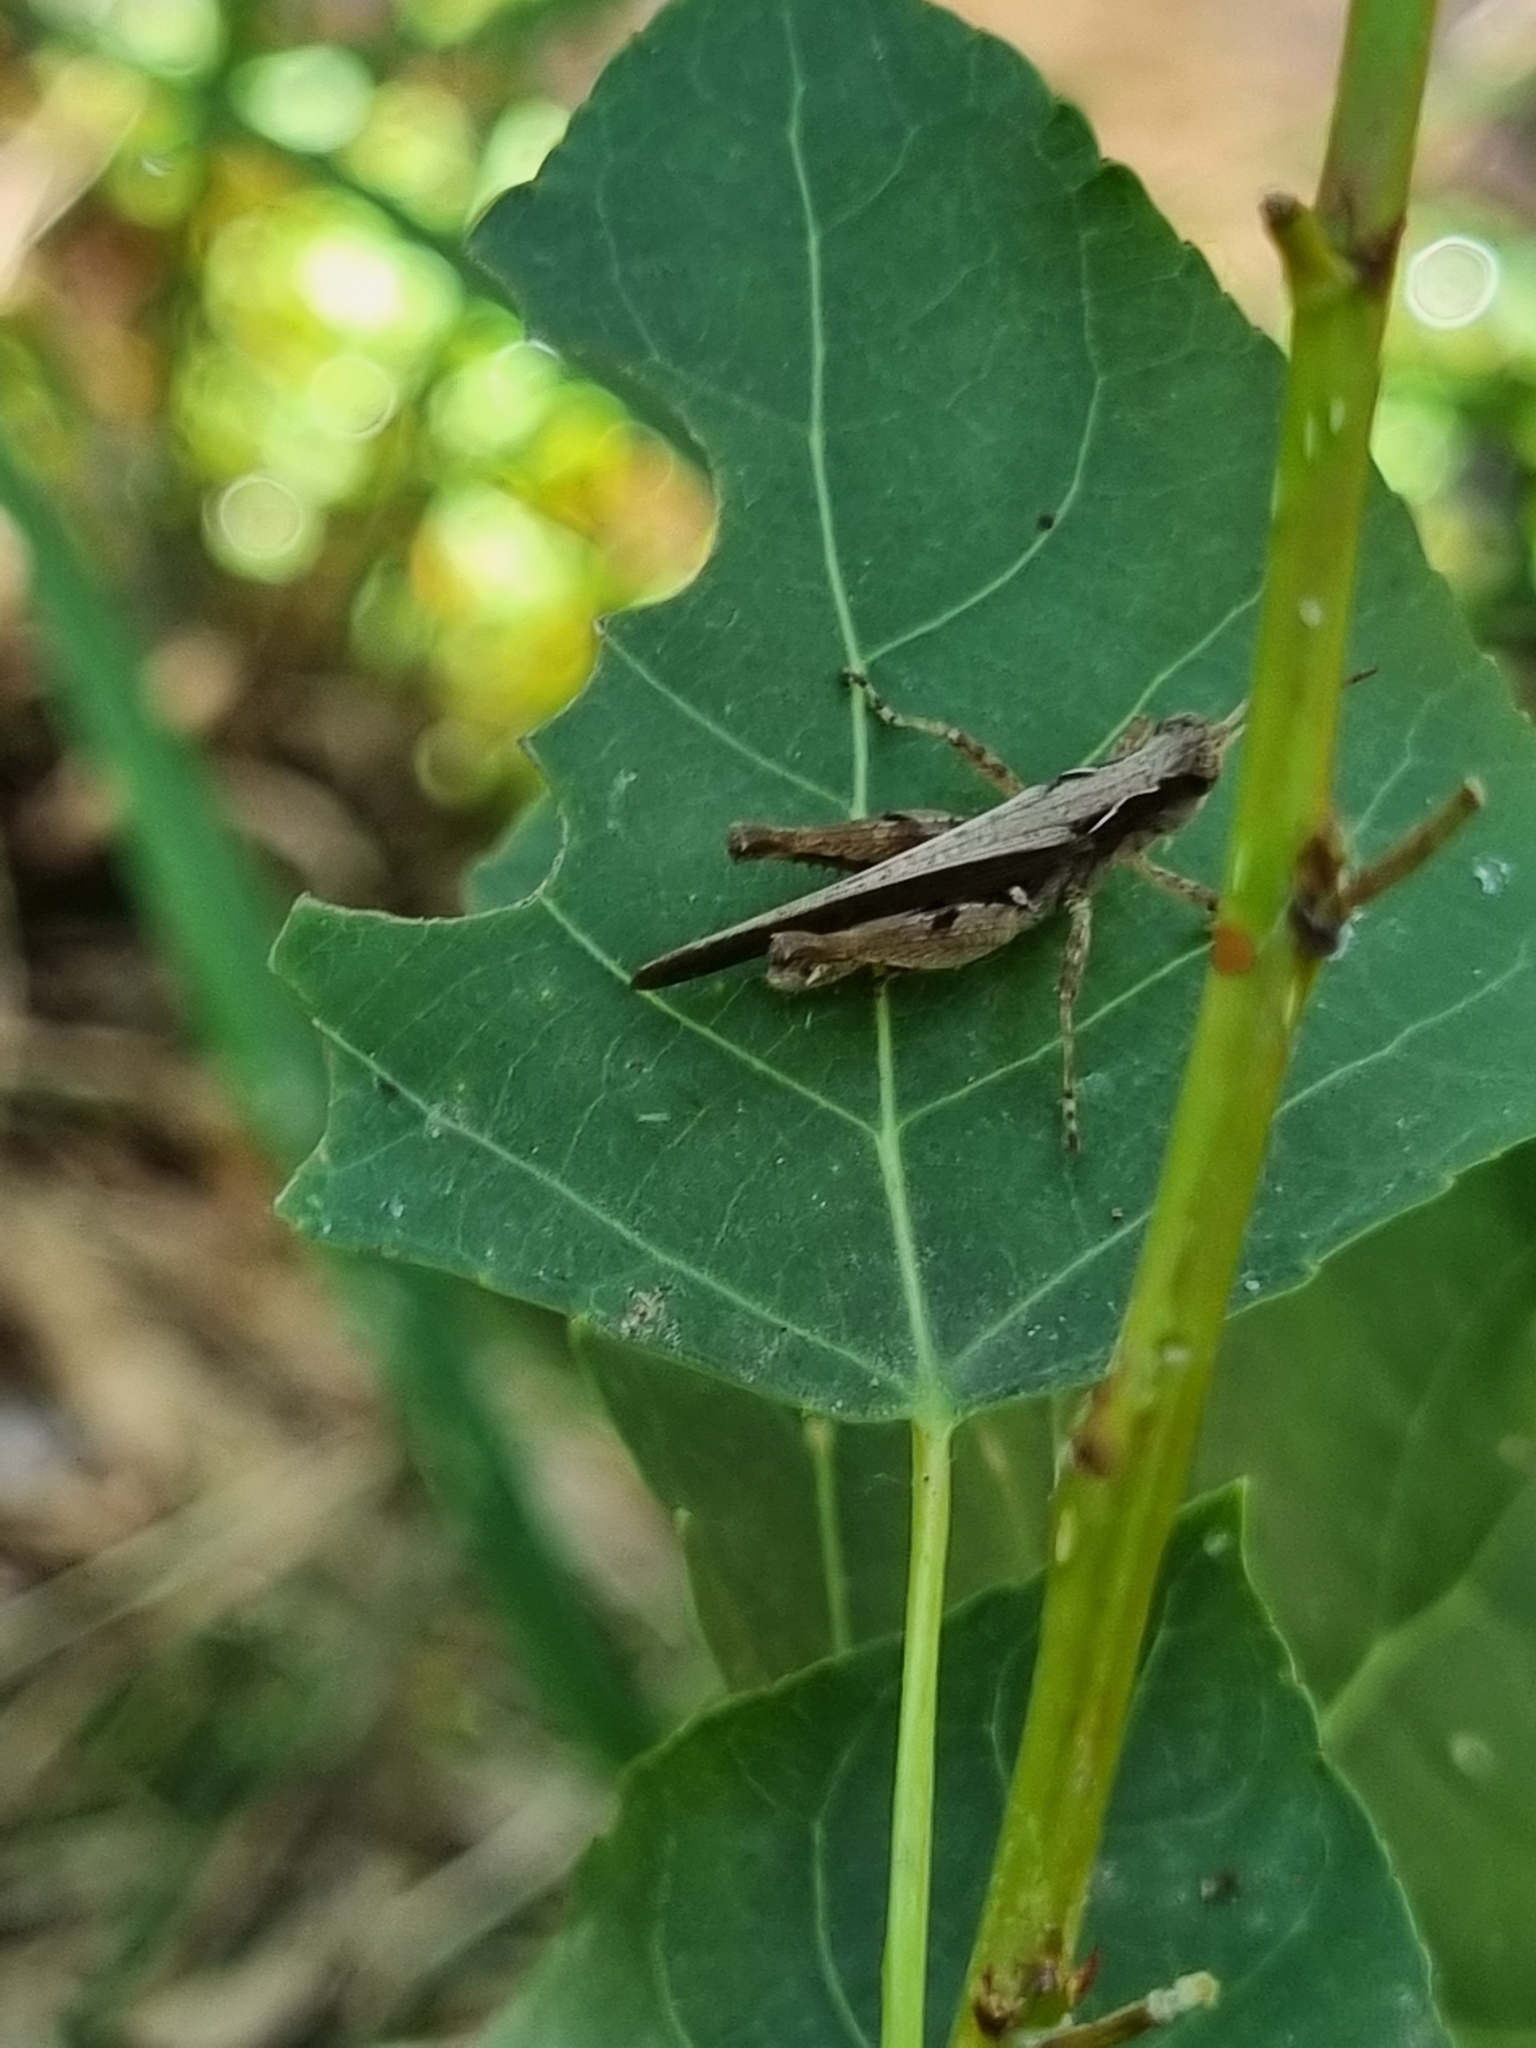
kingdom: Animalia
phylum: Arthropoda
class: Insecta
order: Orthoptera
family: Acrididae
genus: Orphulella
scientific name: Orphulella punctata
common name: Slant-faced grasshopper
